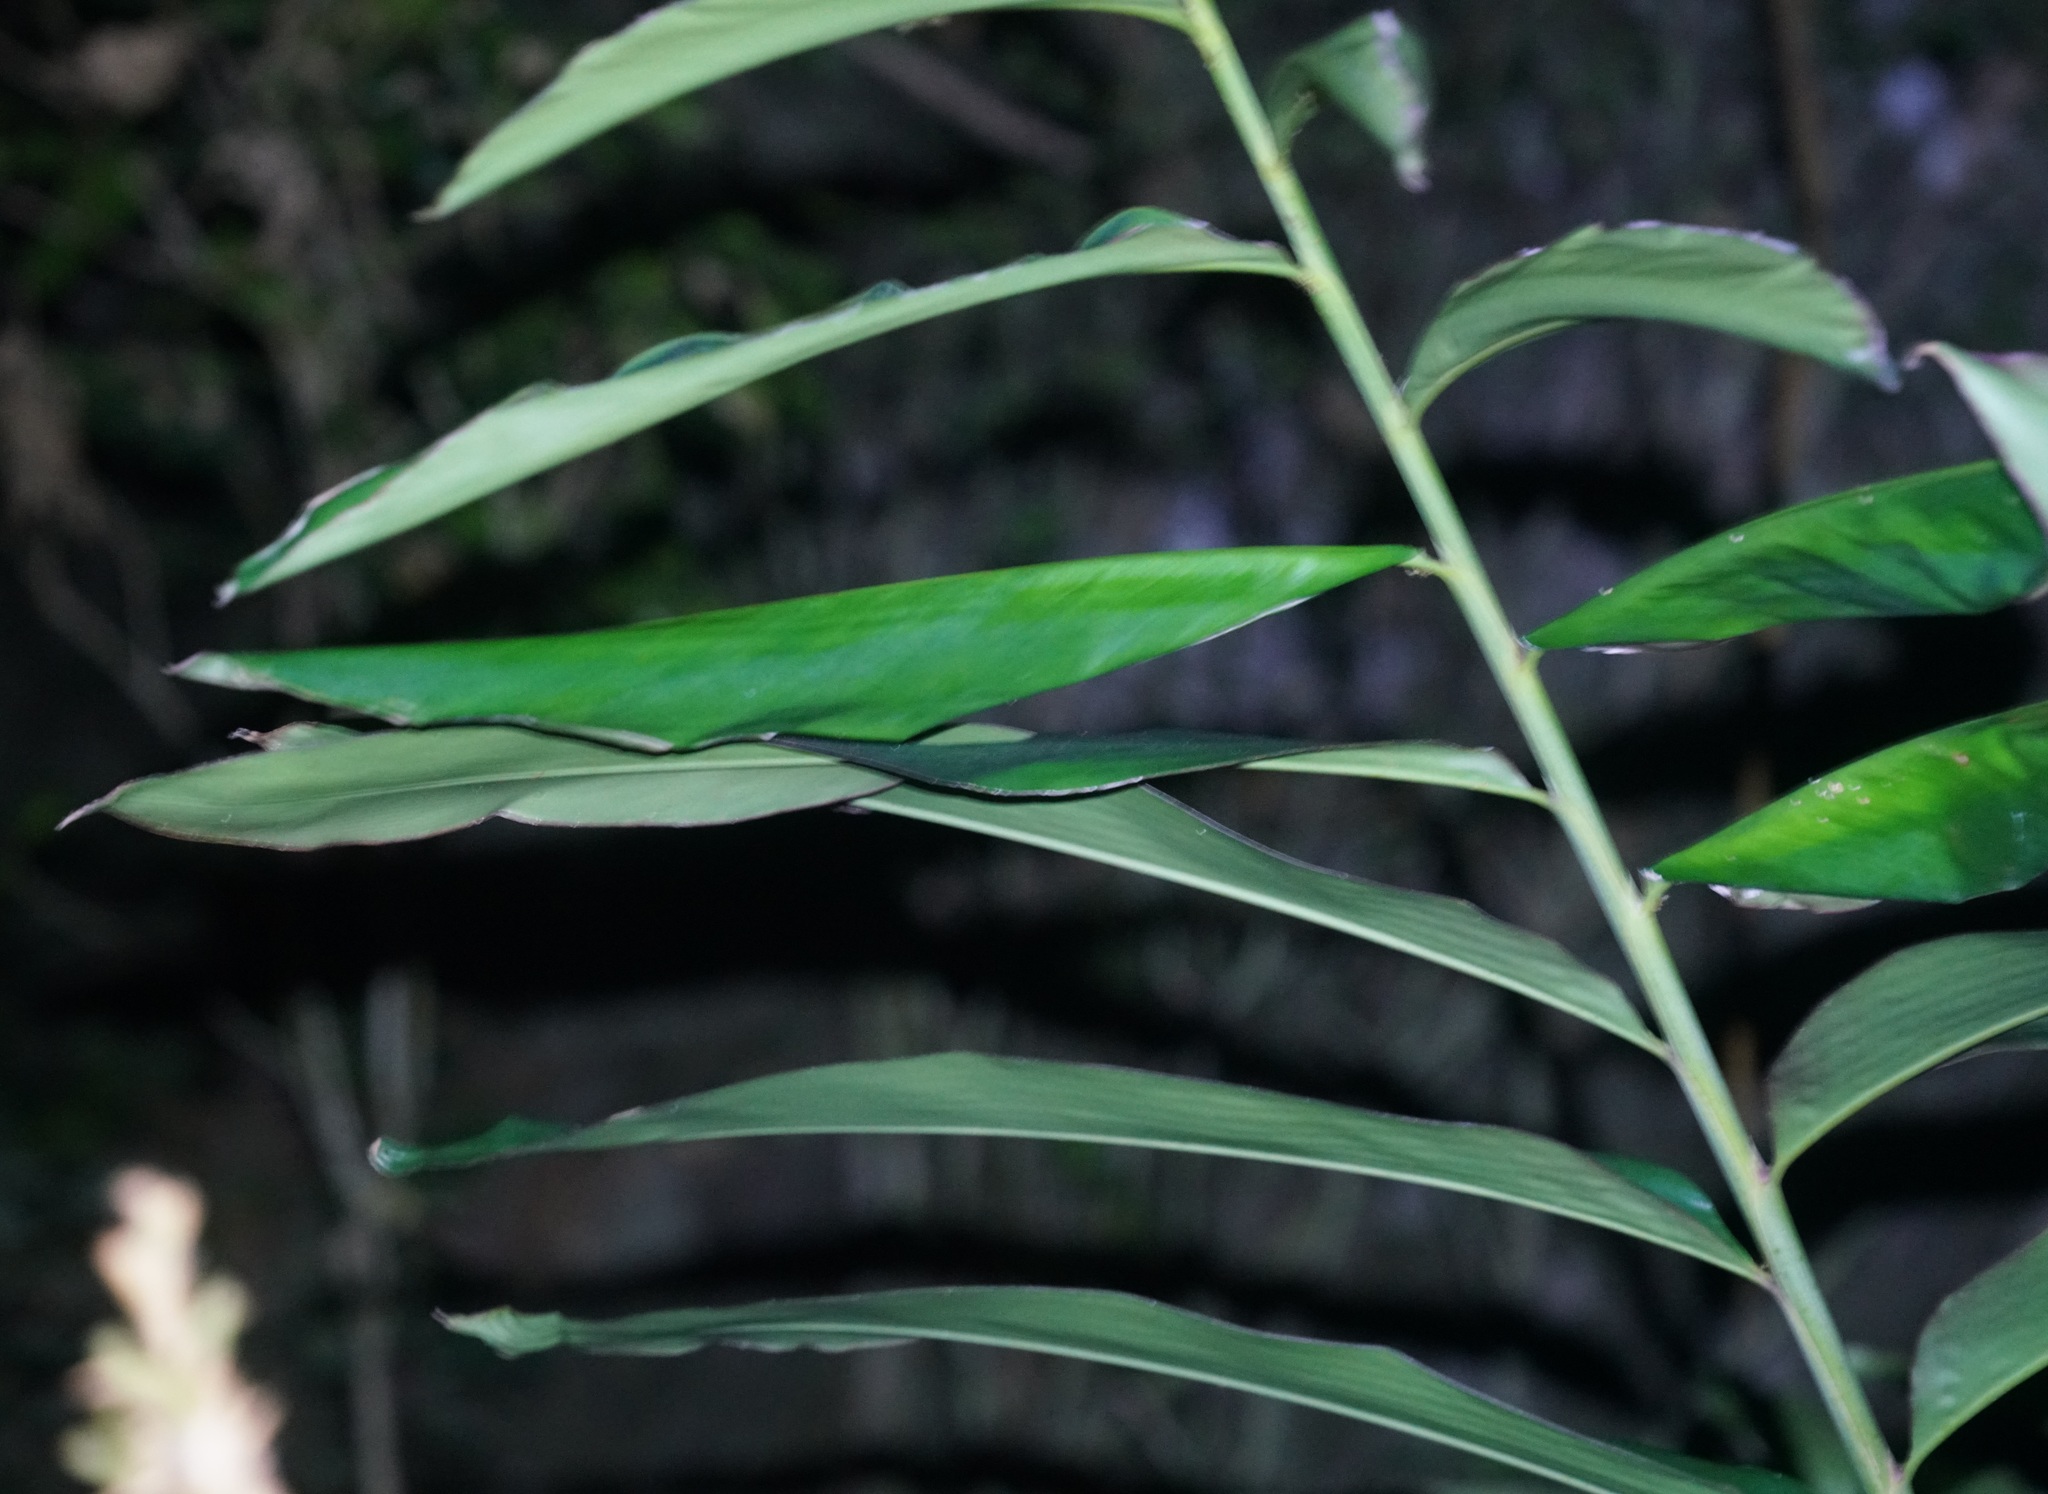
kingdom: Plantae
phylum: Tracheophyta
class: Liliopsida
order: Zingiberales
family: Zingiberaceae
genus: Alpinia
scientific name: Alpinia caerulea
